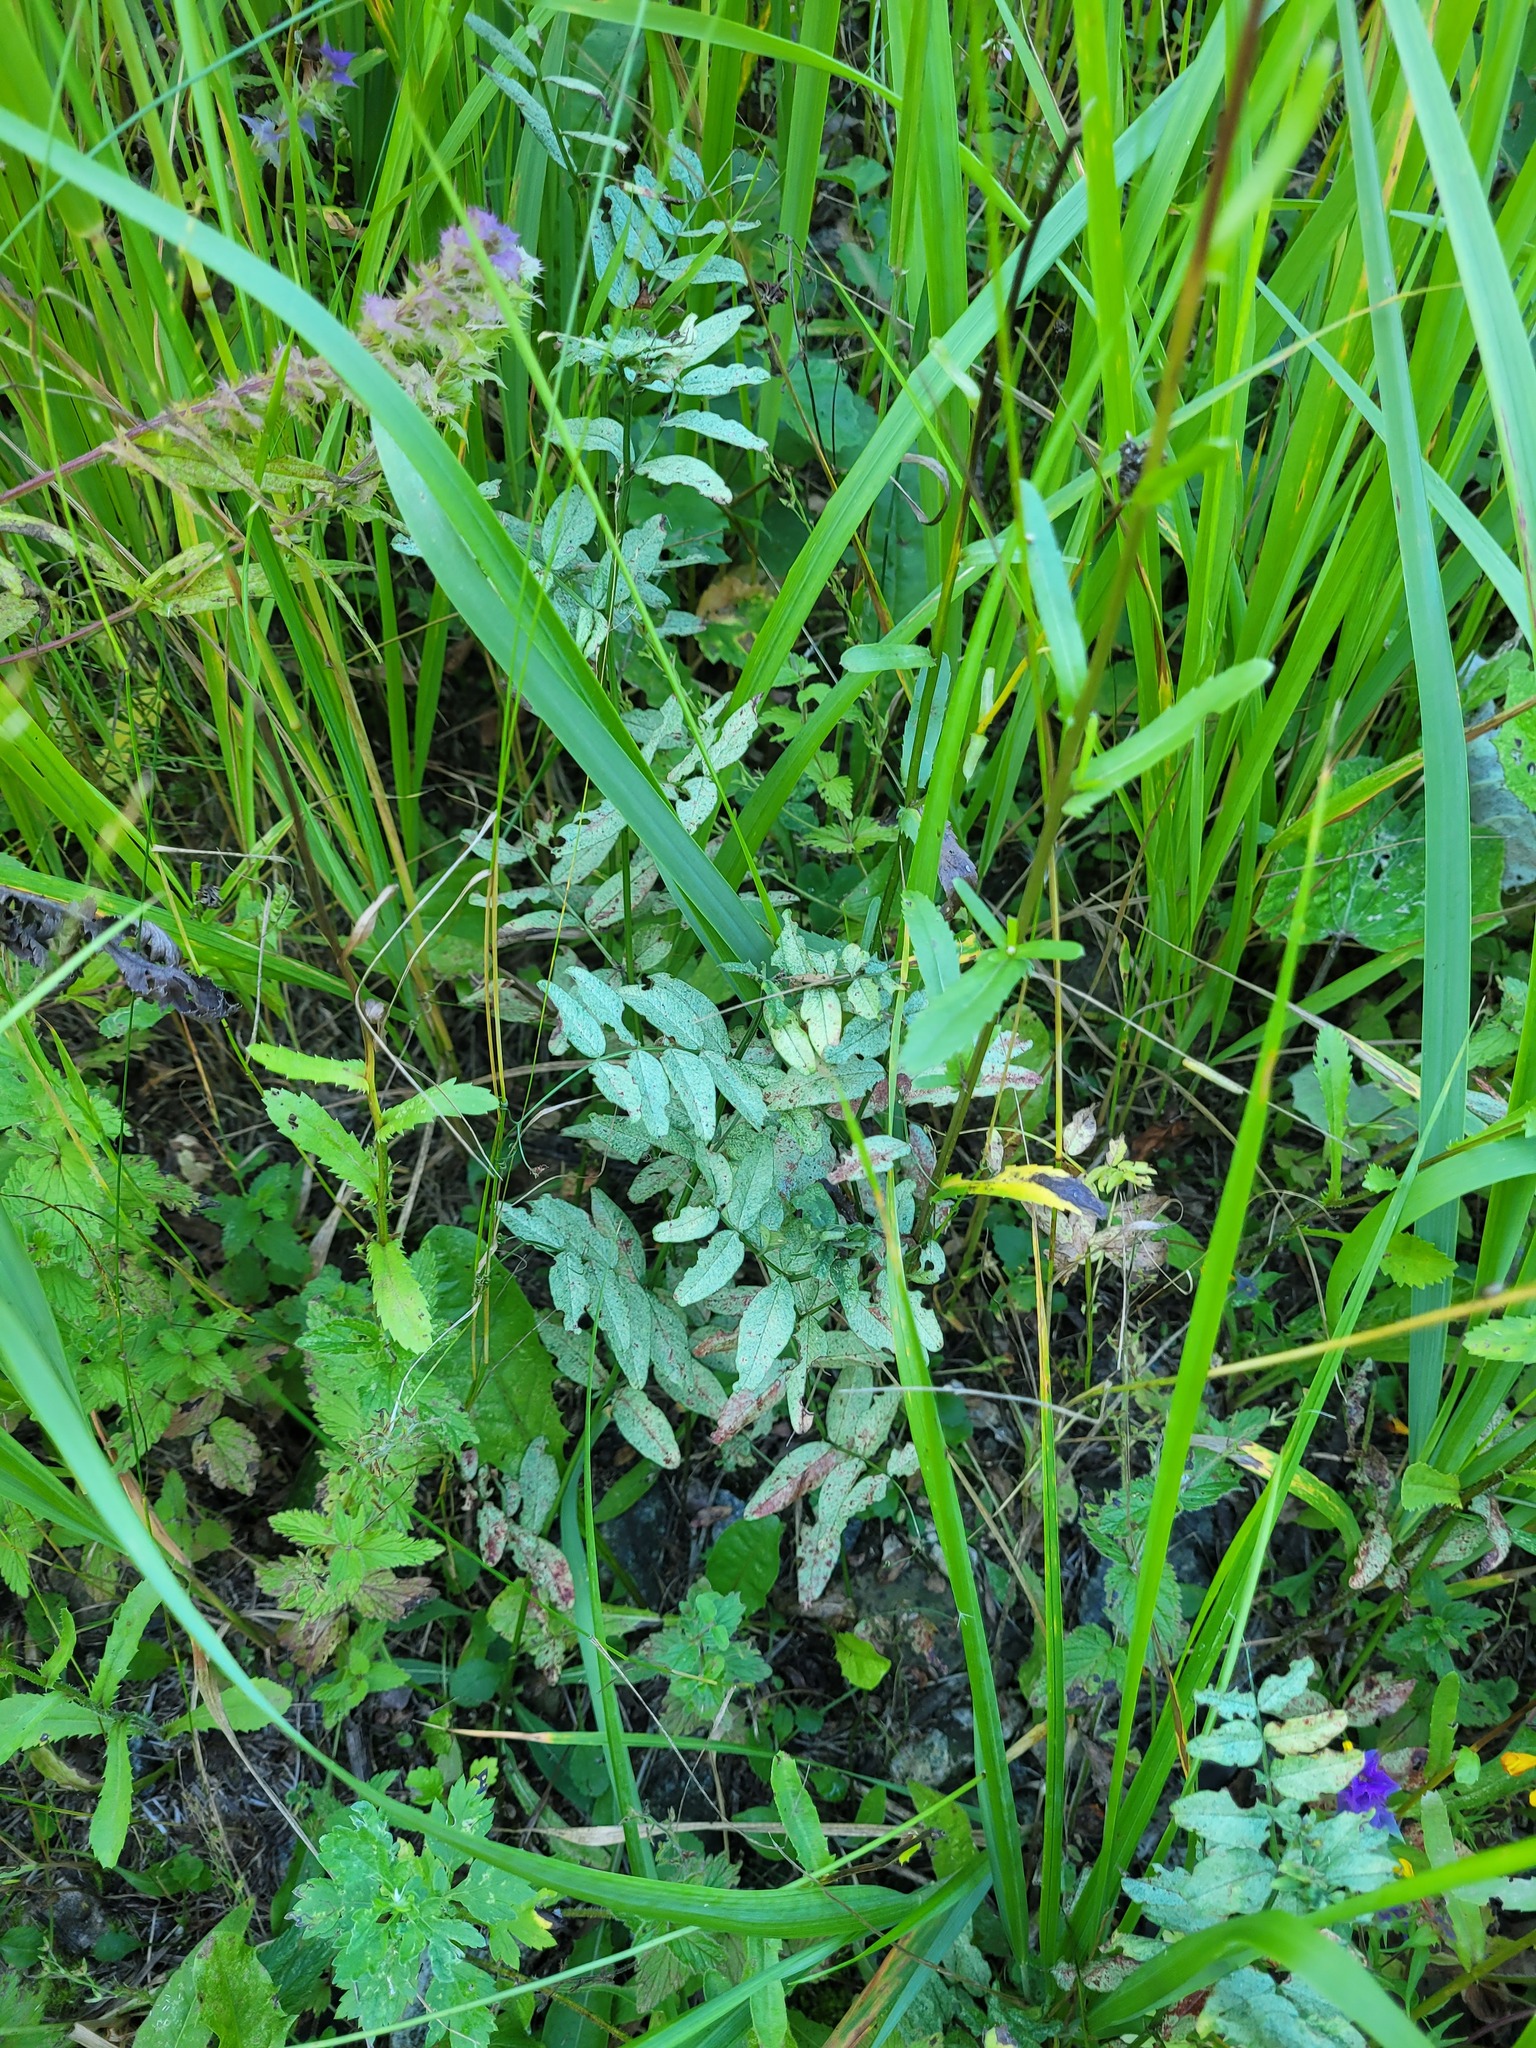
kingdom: Plantae
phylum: Tracheophyta
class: Magnoliopsida
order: Fabales
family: Fabaceae
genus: Vicia
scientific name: Vicia sepium
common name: Bush vetch
